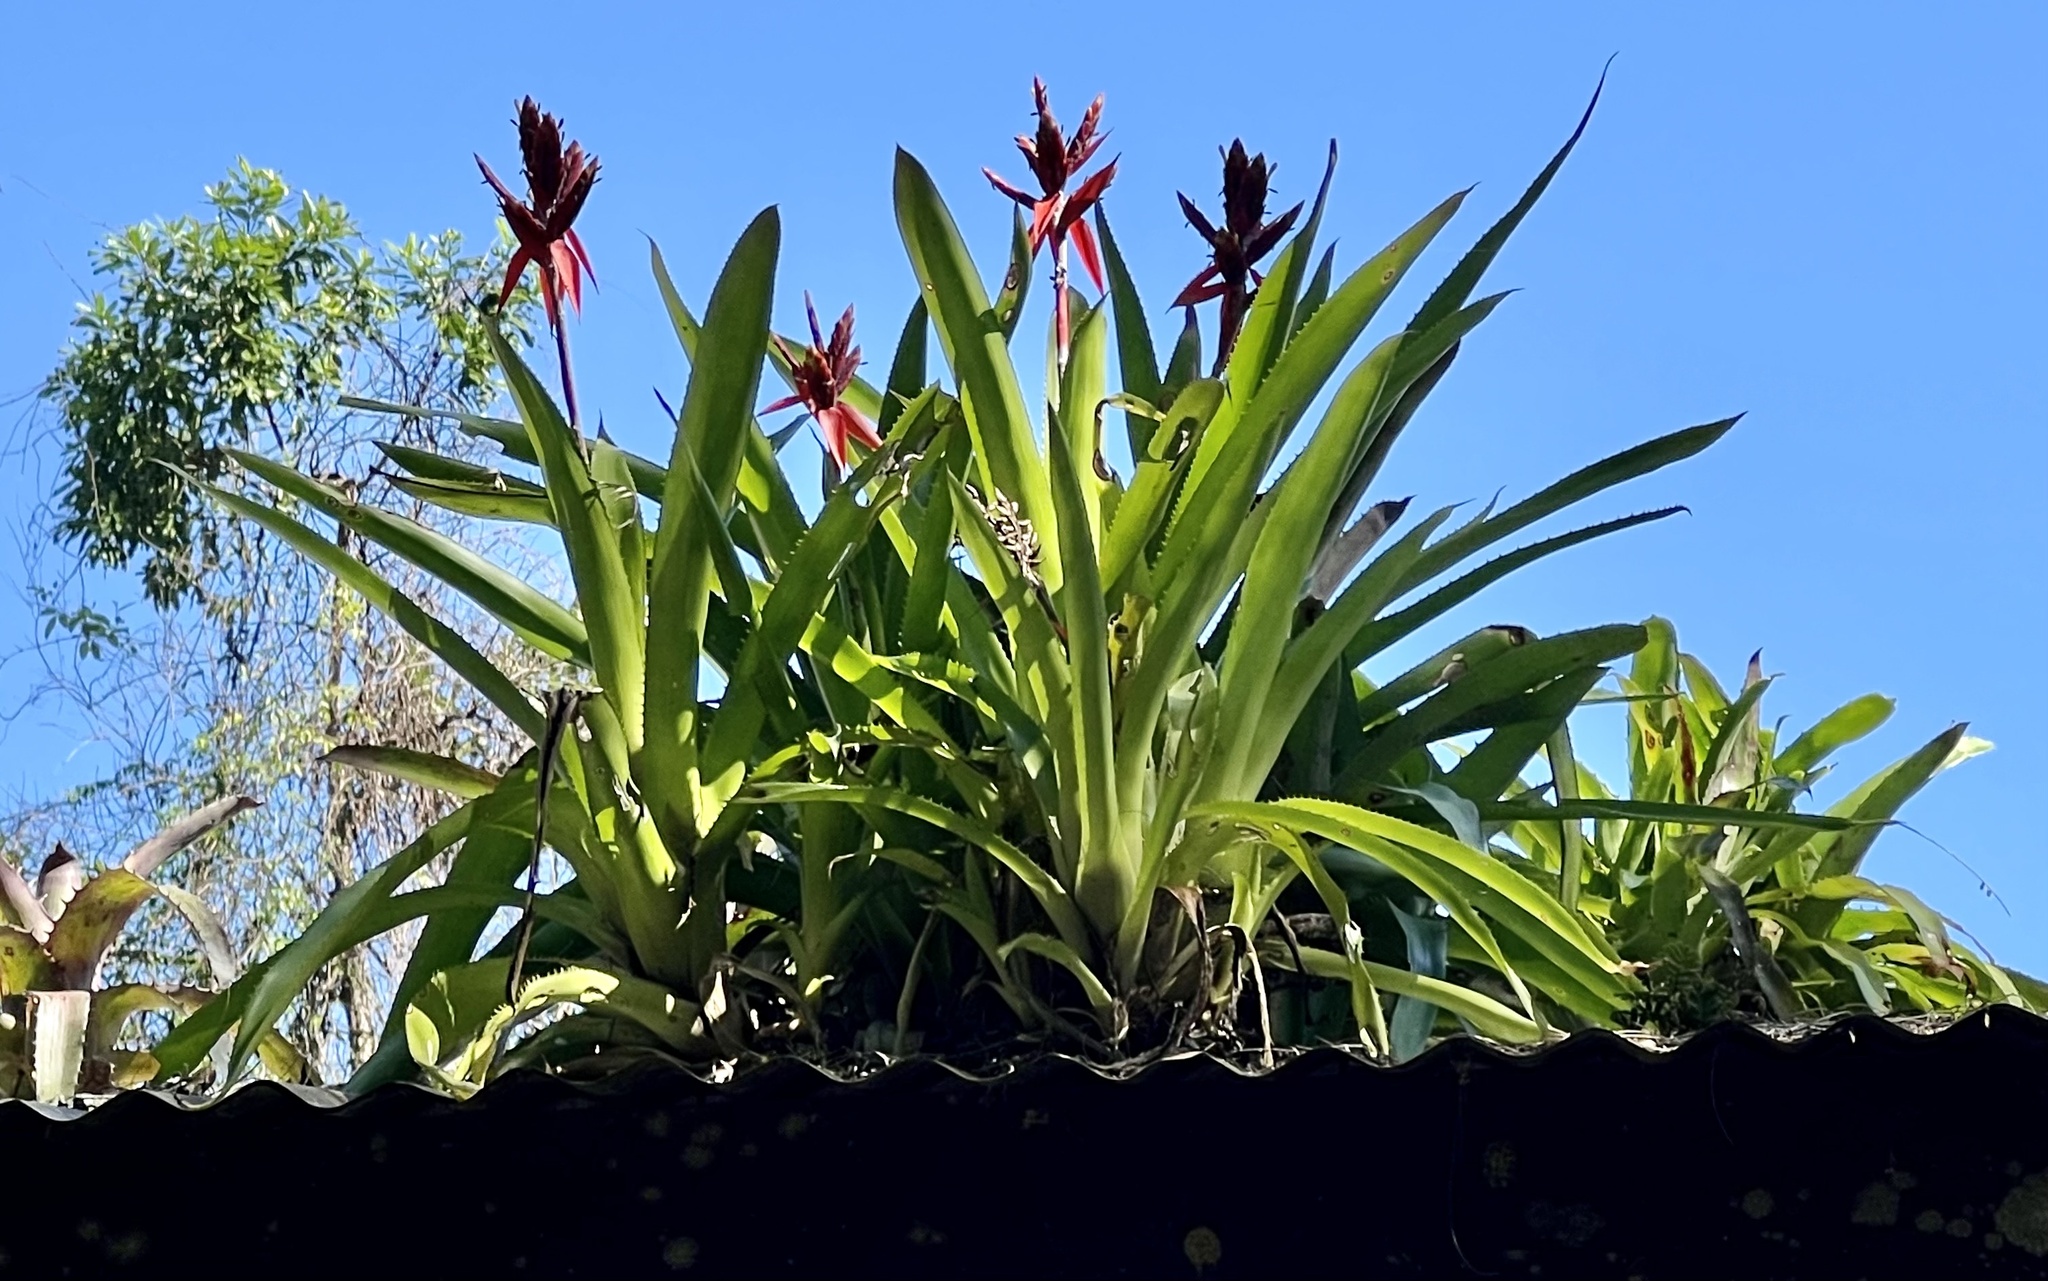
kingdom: Plantae
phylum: Tracheophyta
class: Liliopsida
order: Poales
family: Bromeliaceae
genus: Aechmea
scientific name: Aechmea tillandsioides
